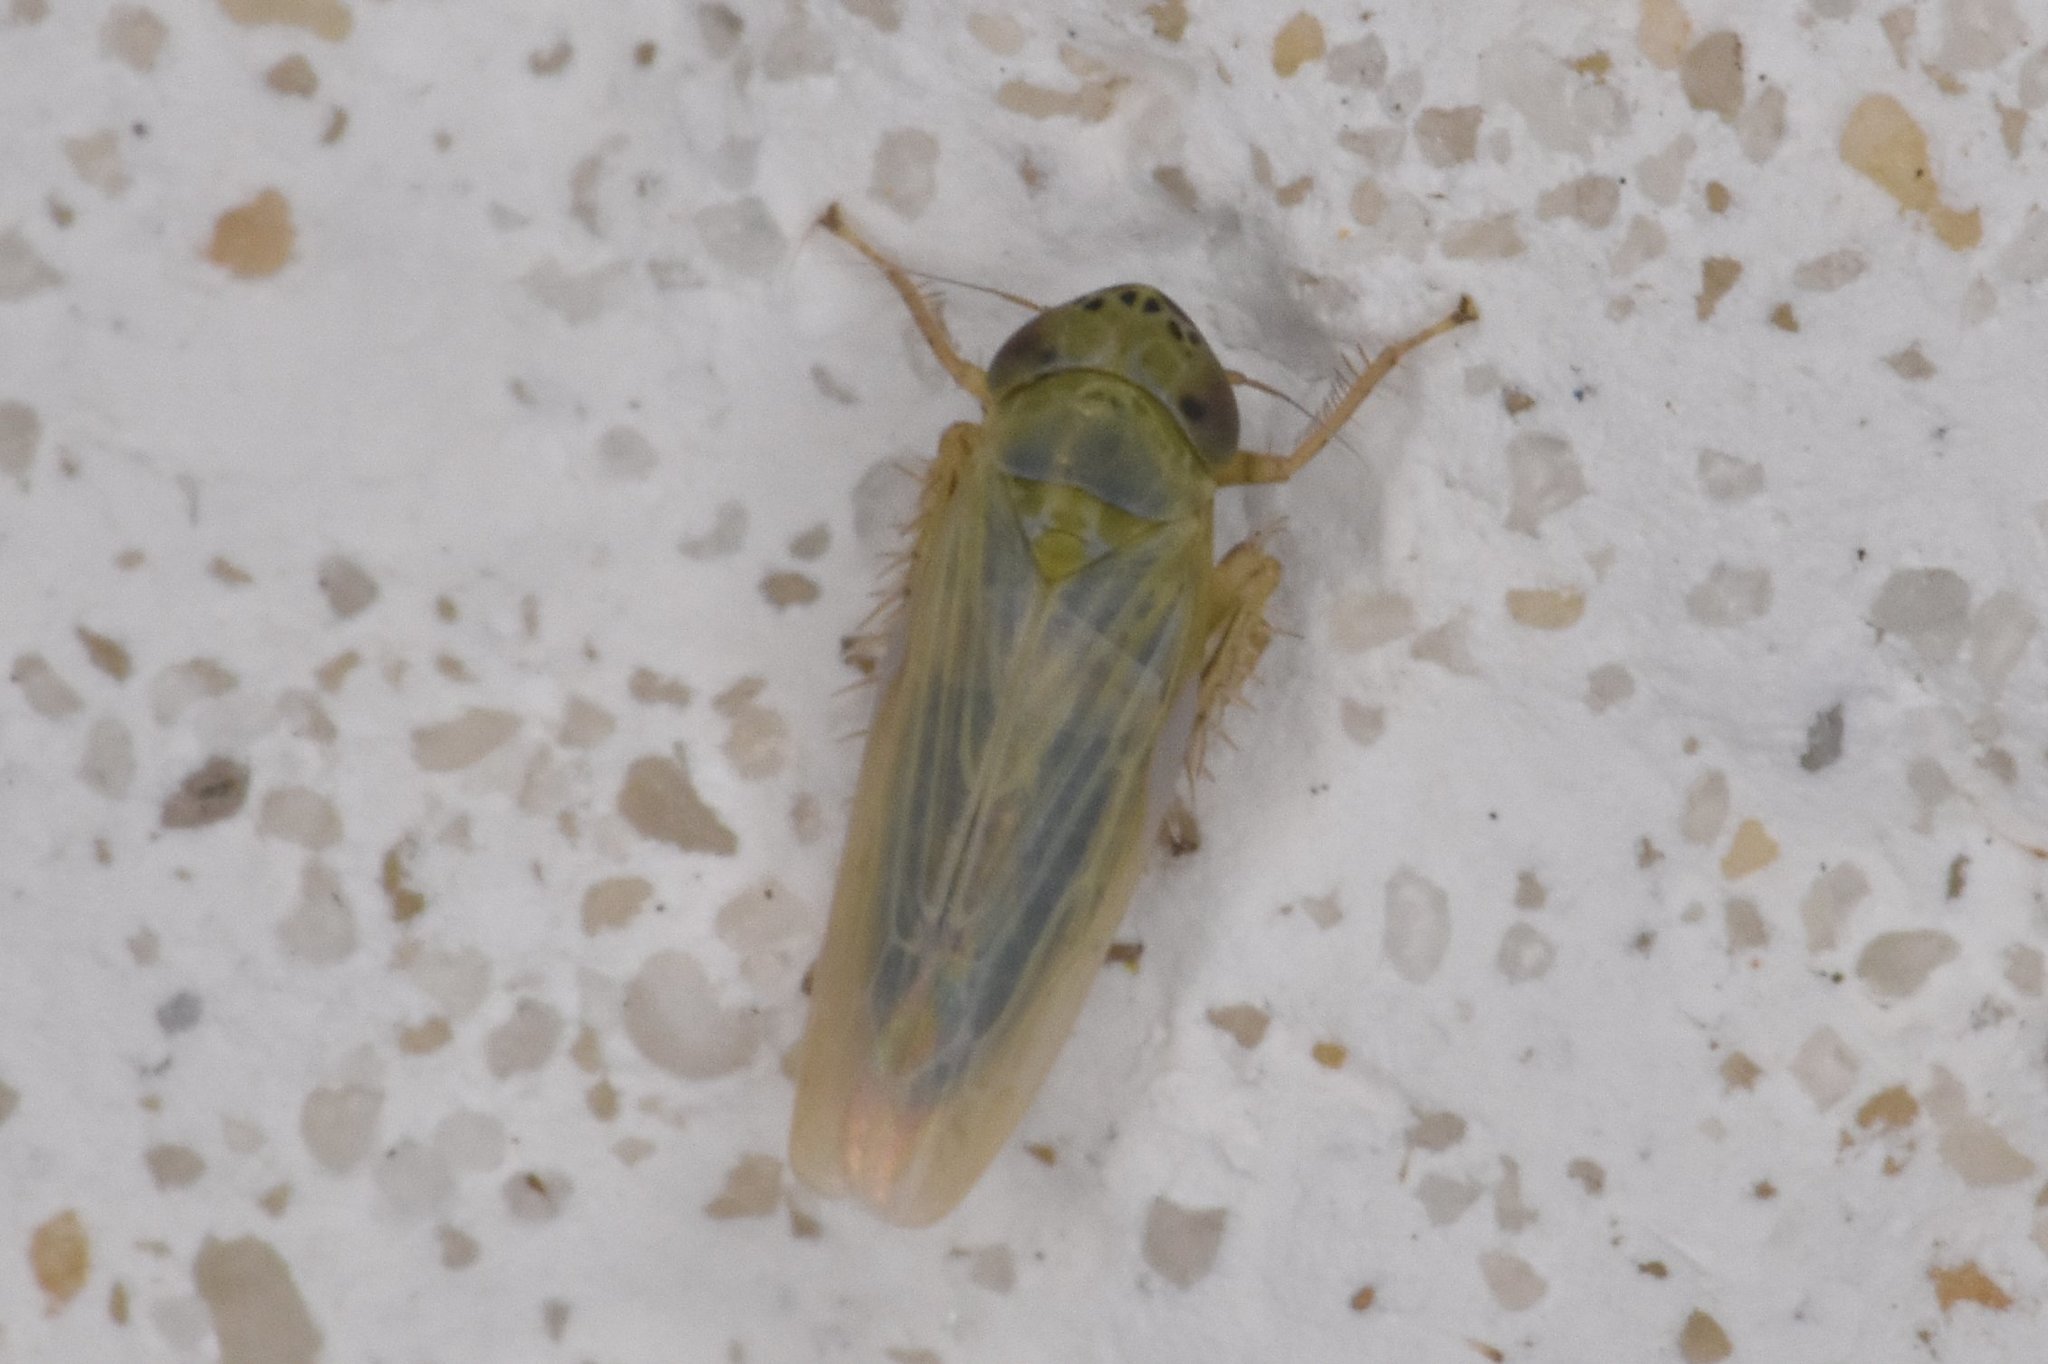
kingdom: Animalia
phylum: Arthropoda
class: Insecta
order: Hemiptera
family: Cicadellidae
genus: Graminella
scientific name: Graminella nigrifrons
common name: Blackfaced leafhopper
